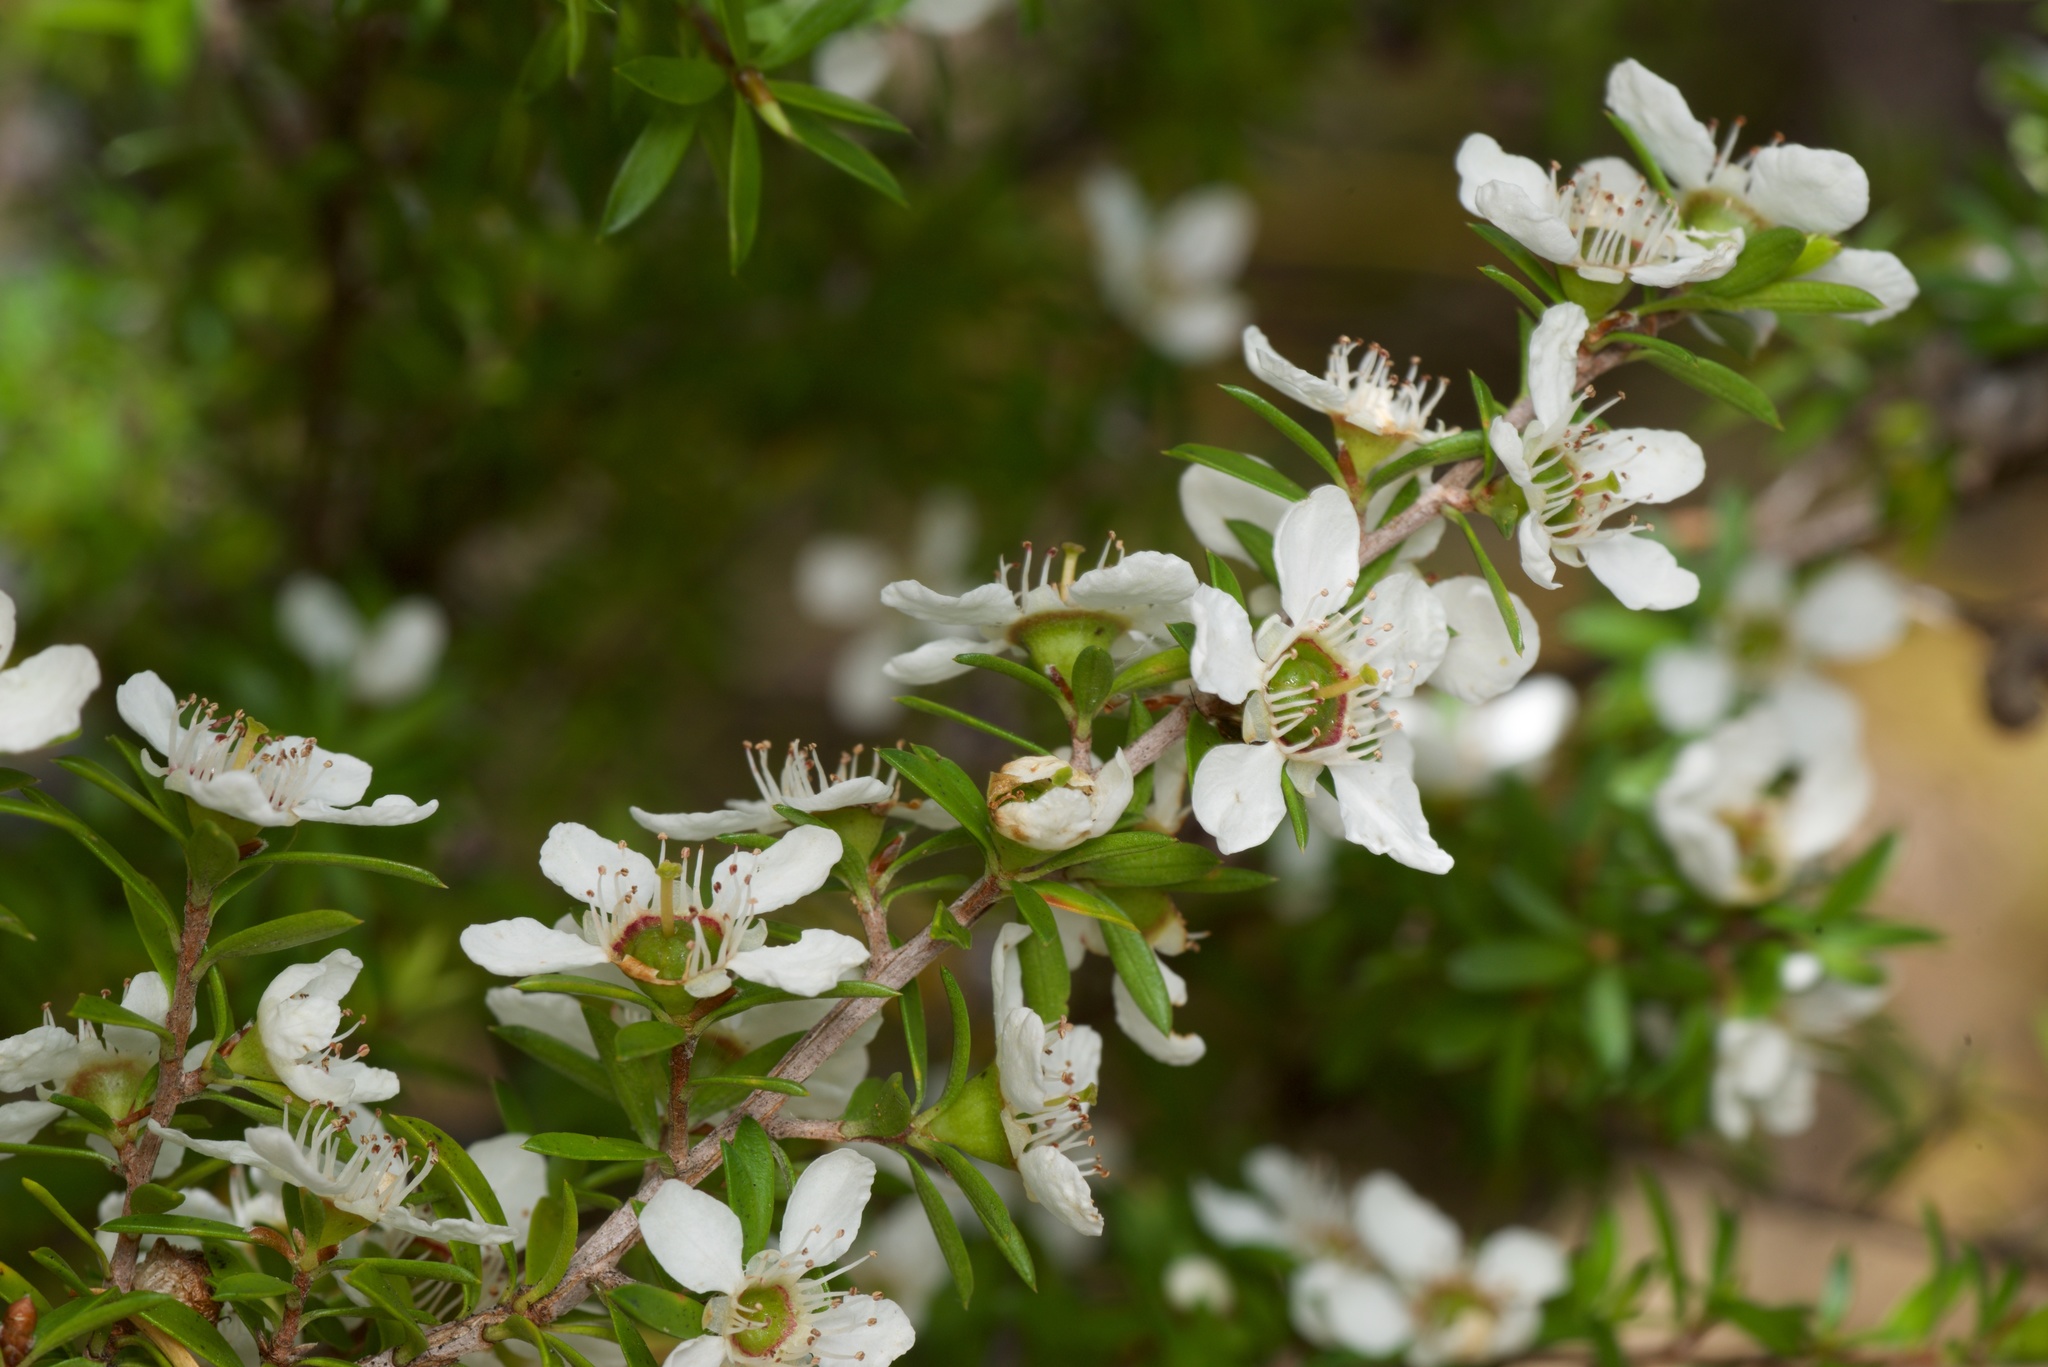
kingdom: Plantae
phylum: Tracheophyta
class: Magnoliopsida
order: Myrtales
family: Myrtaceae
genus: Leptospermum
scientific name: Leptospermum scoparium
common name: Broom tea-tree
